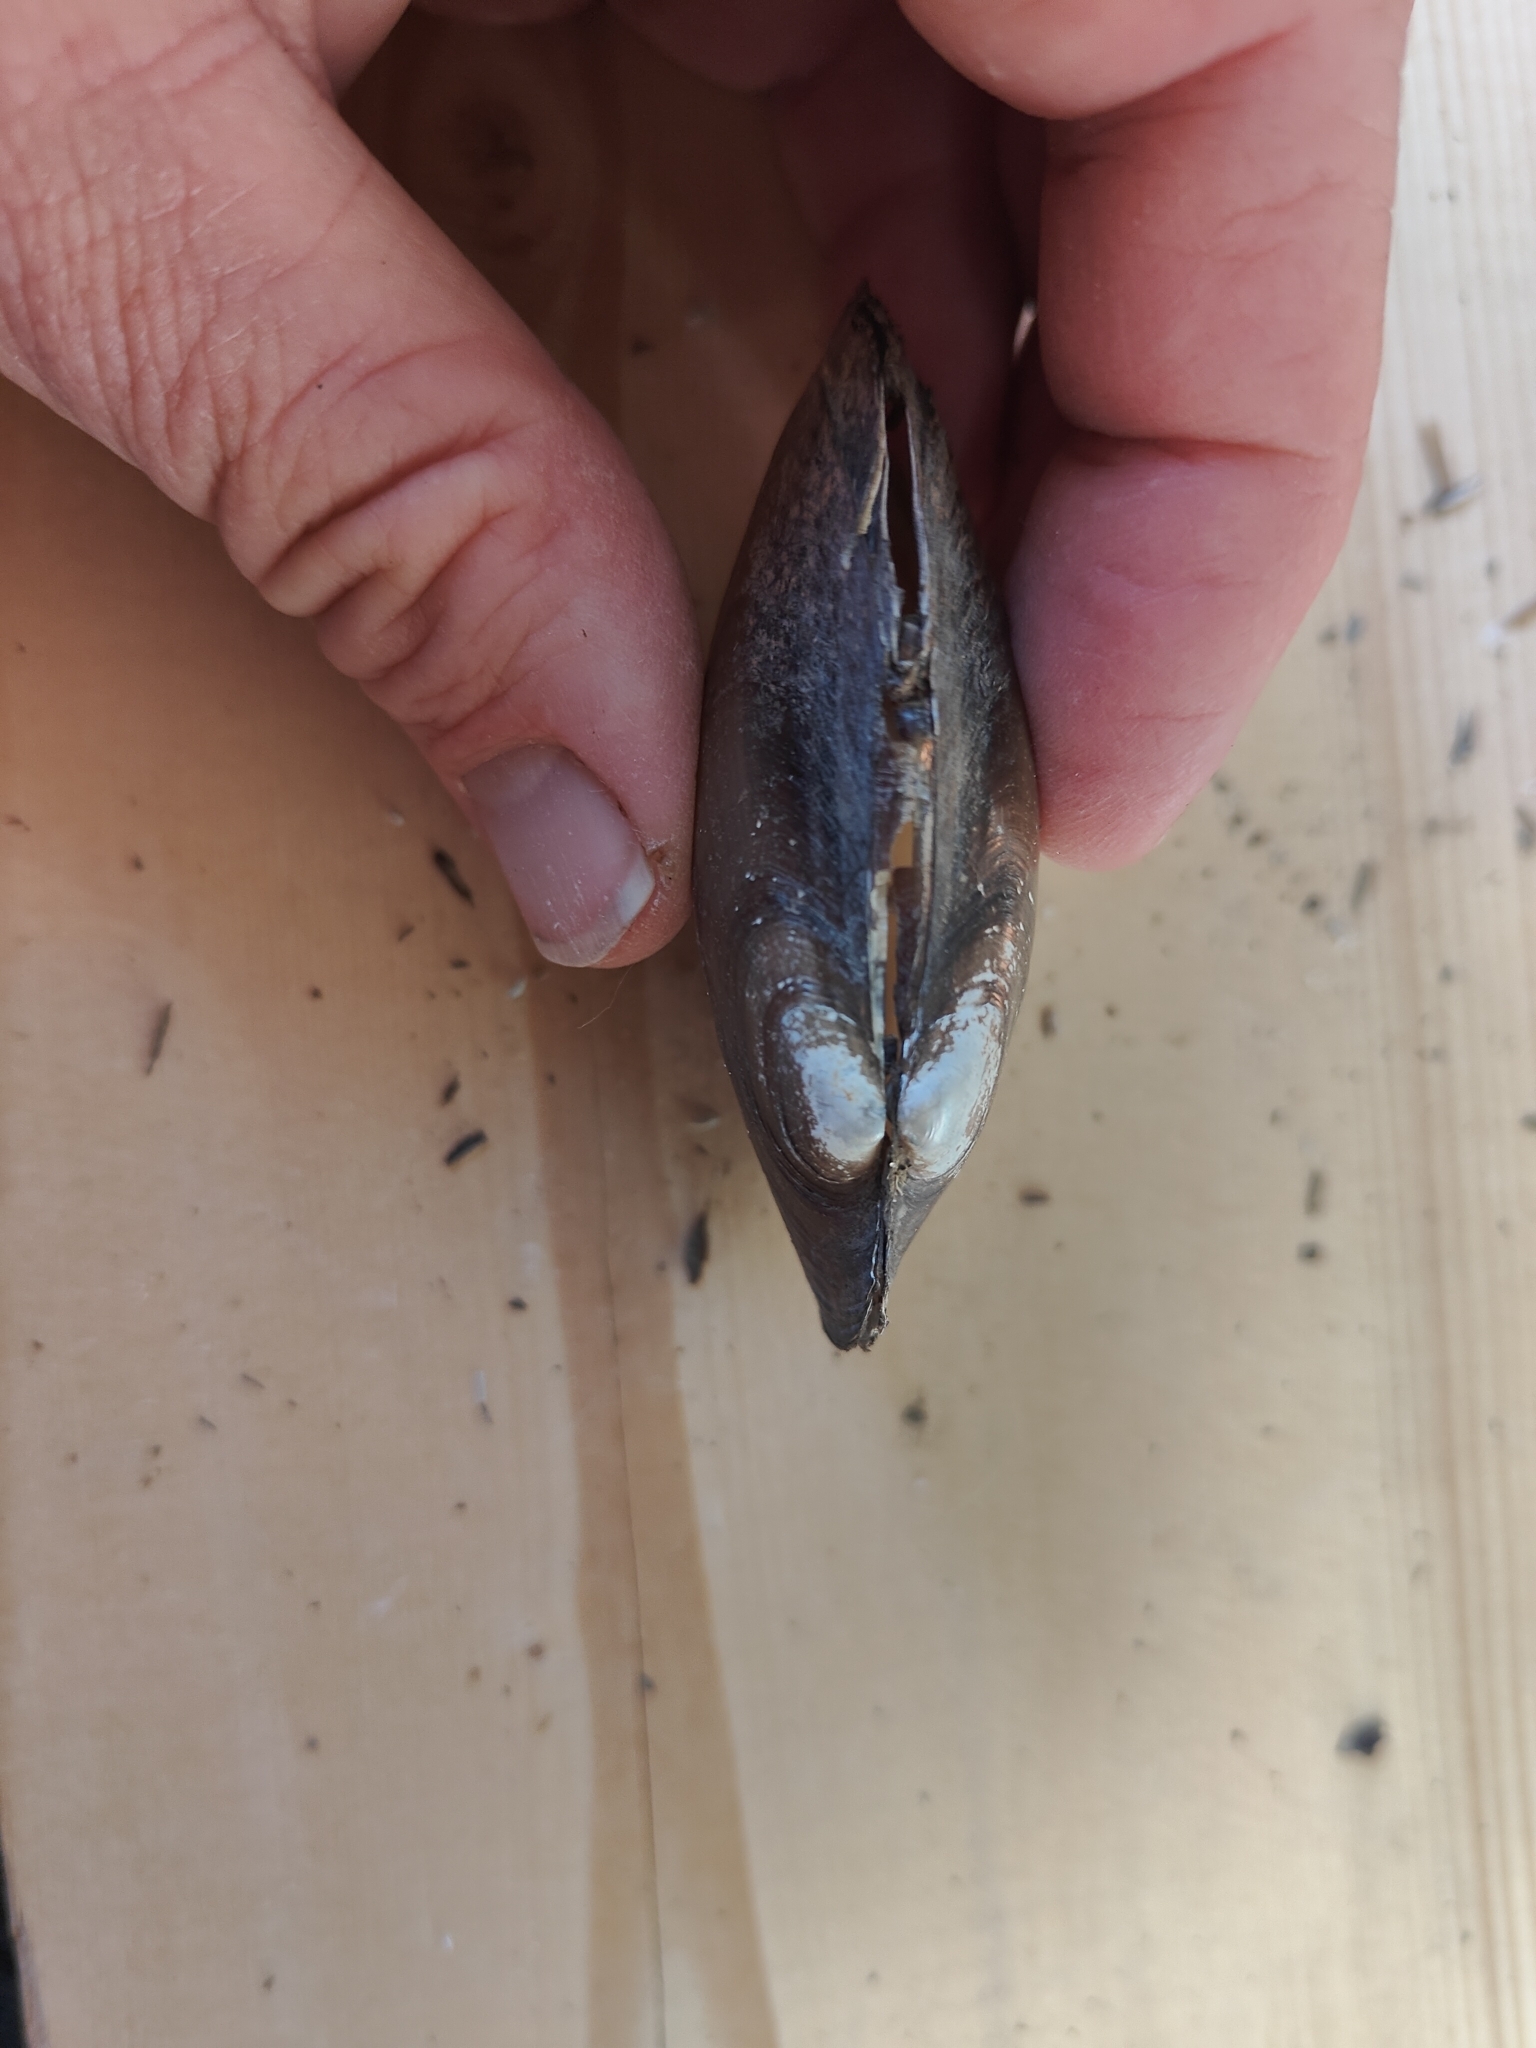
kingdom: Animalia
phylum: Mollusca
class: Bivalvia
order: Unionida
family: Unionidae
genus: Potamilus
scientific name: Potamilus fragilis
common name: Fragile papershell
